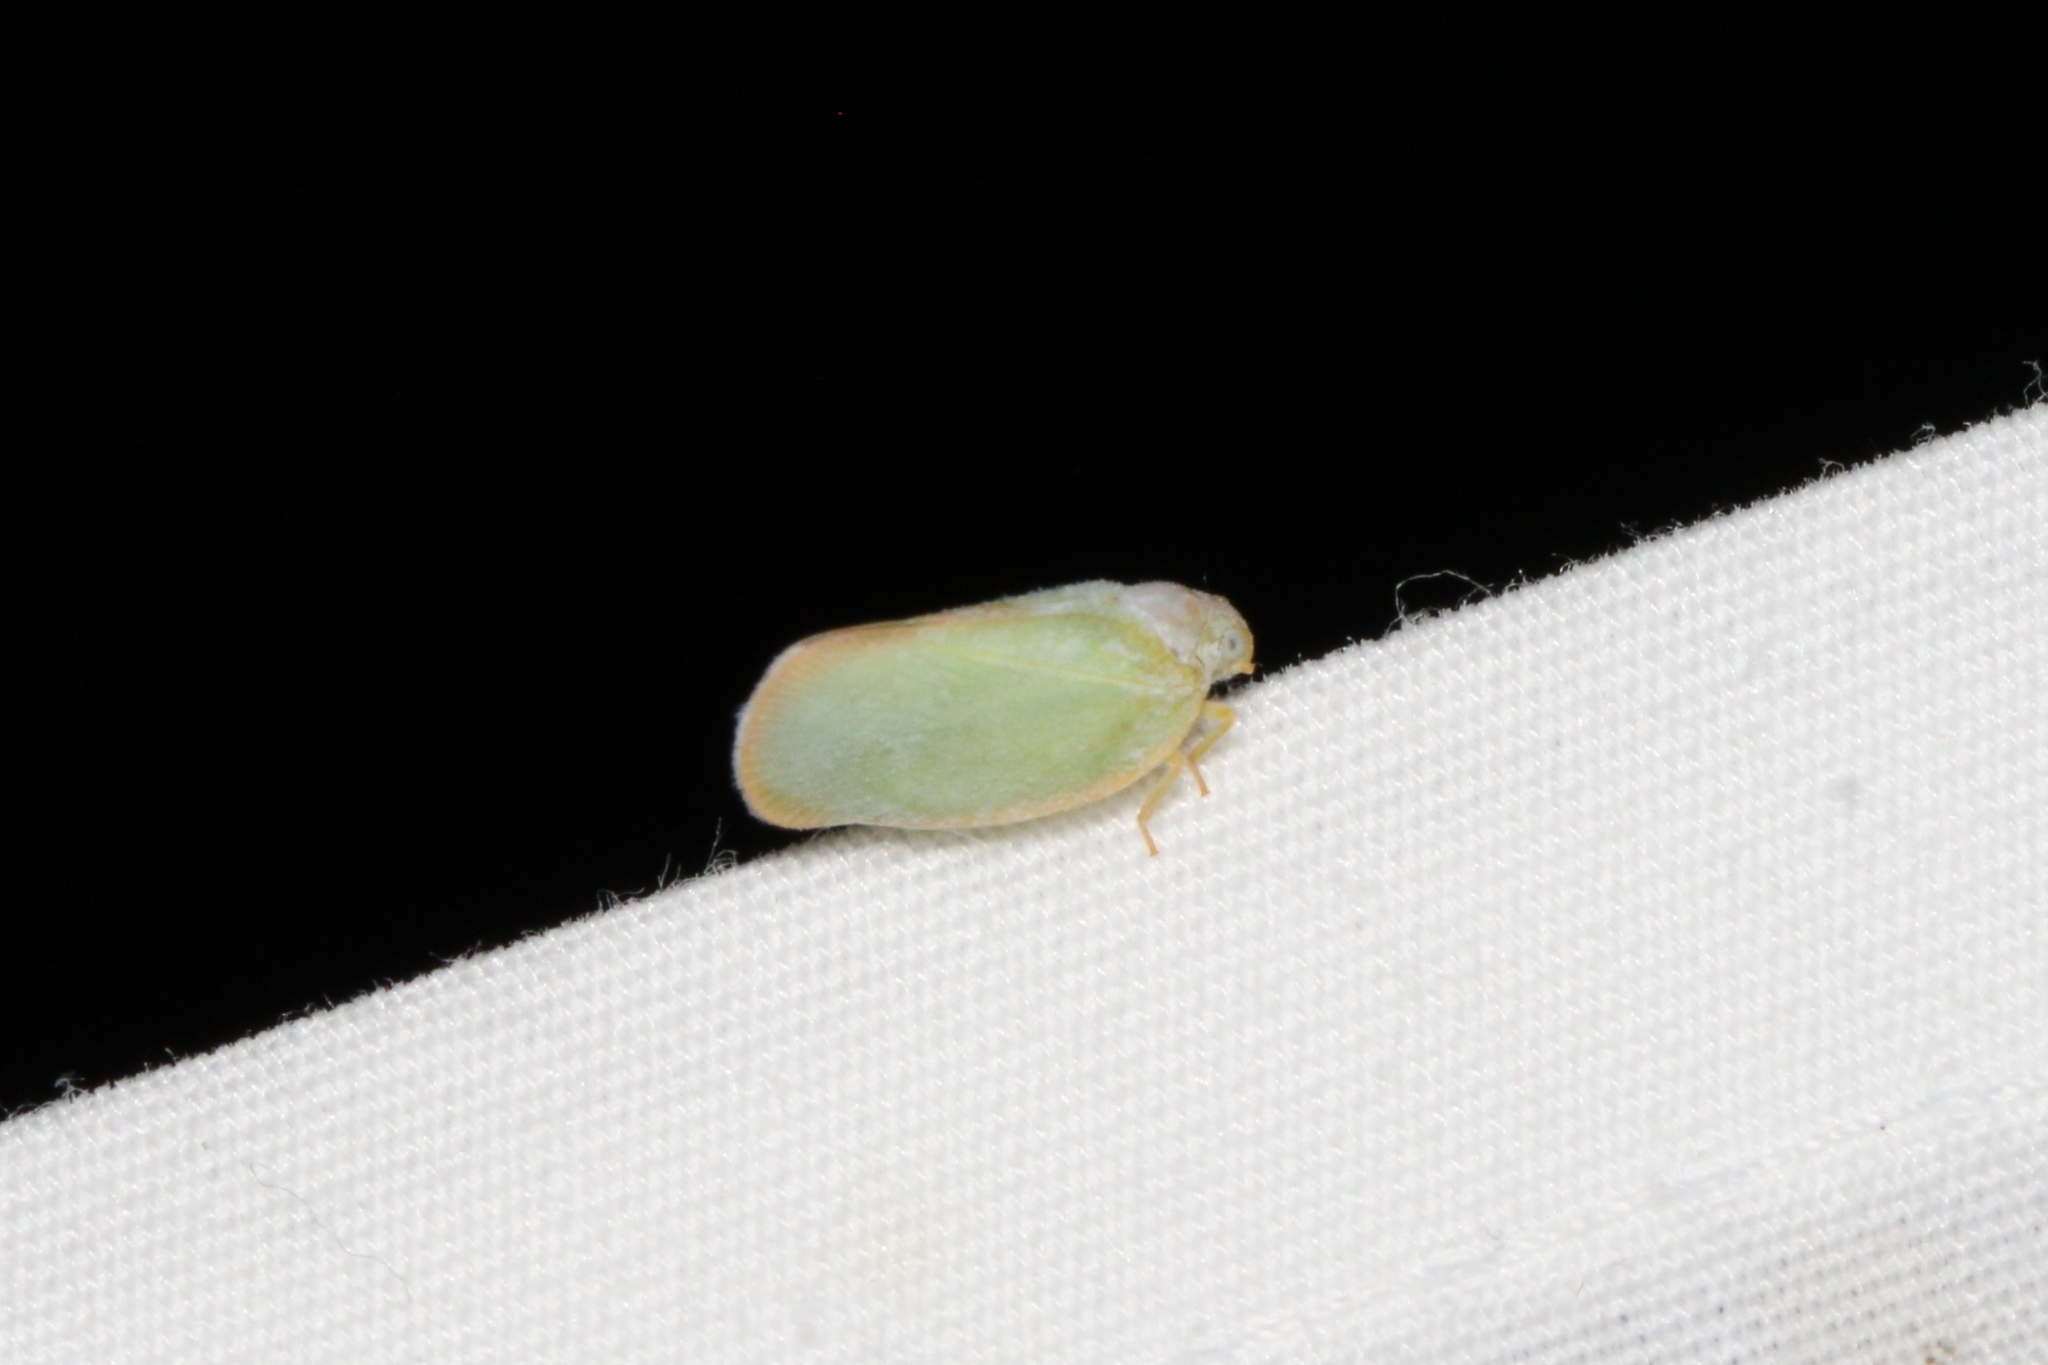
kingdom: Animalia
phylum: Arthropoda
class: Insecta
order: Hemiptera
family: Flatidae
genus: Ormenoides
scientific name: Ormenoides venusta
